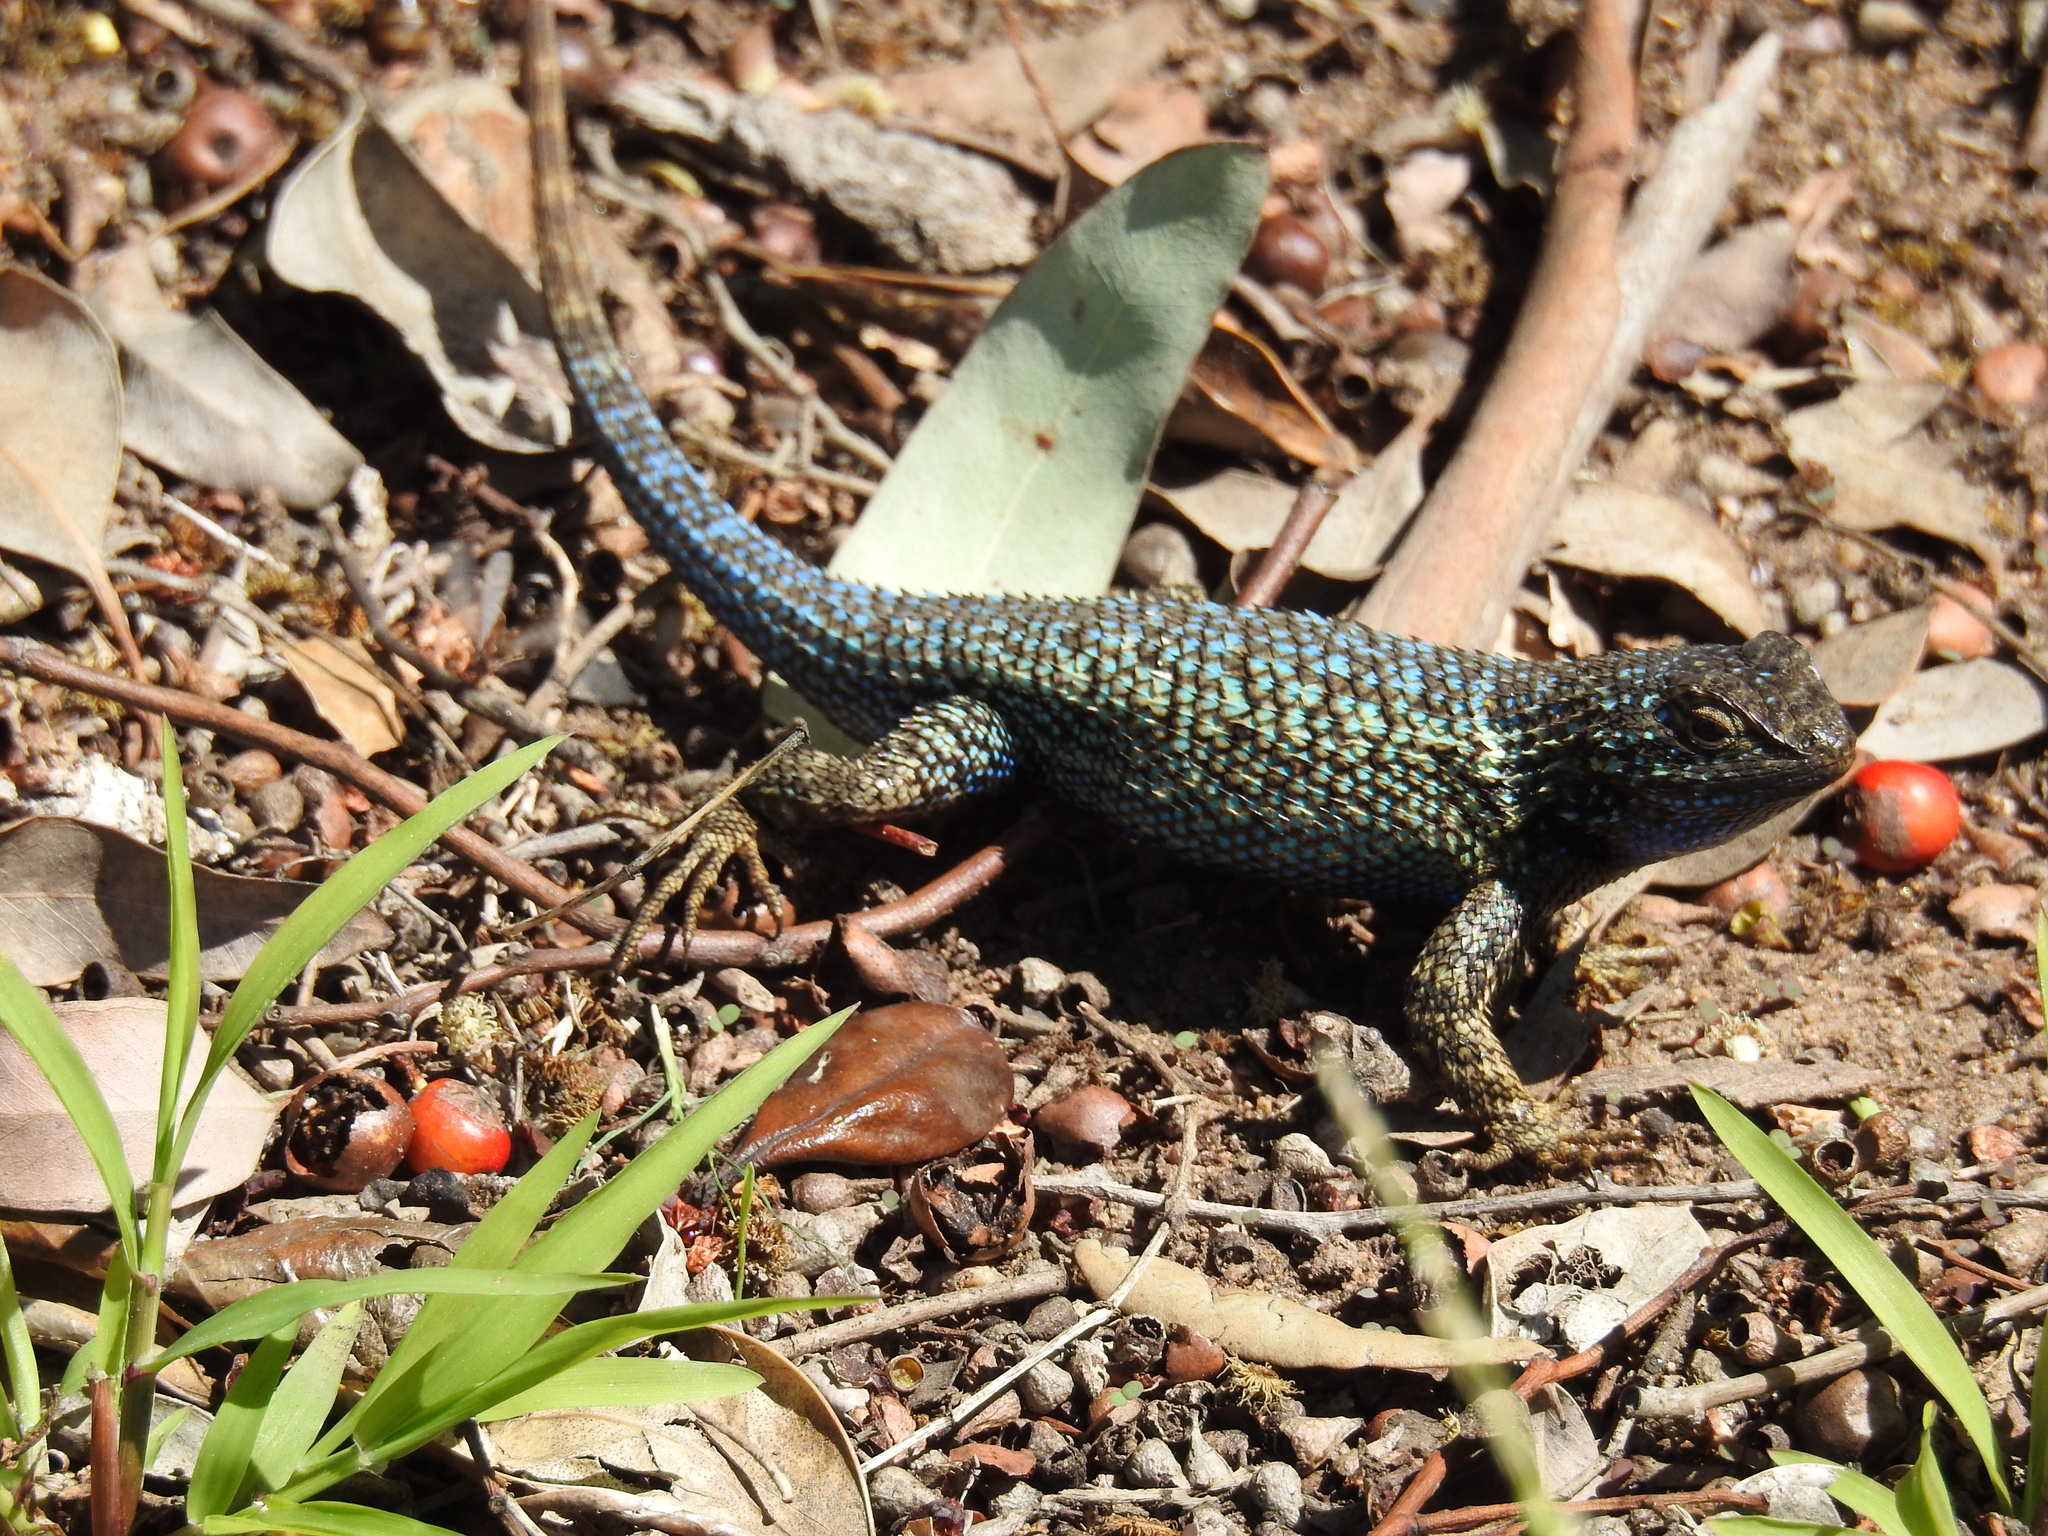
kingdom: Animalia
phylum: Chordata
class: Squamata
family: Phrynosomatidae
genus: Sceloporus
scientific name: Sceloporus occidentalis
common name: Western fence lizard
